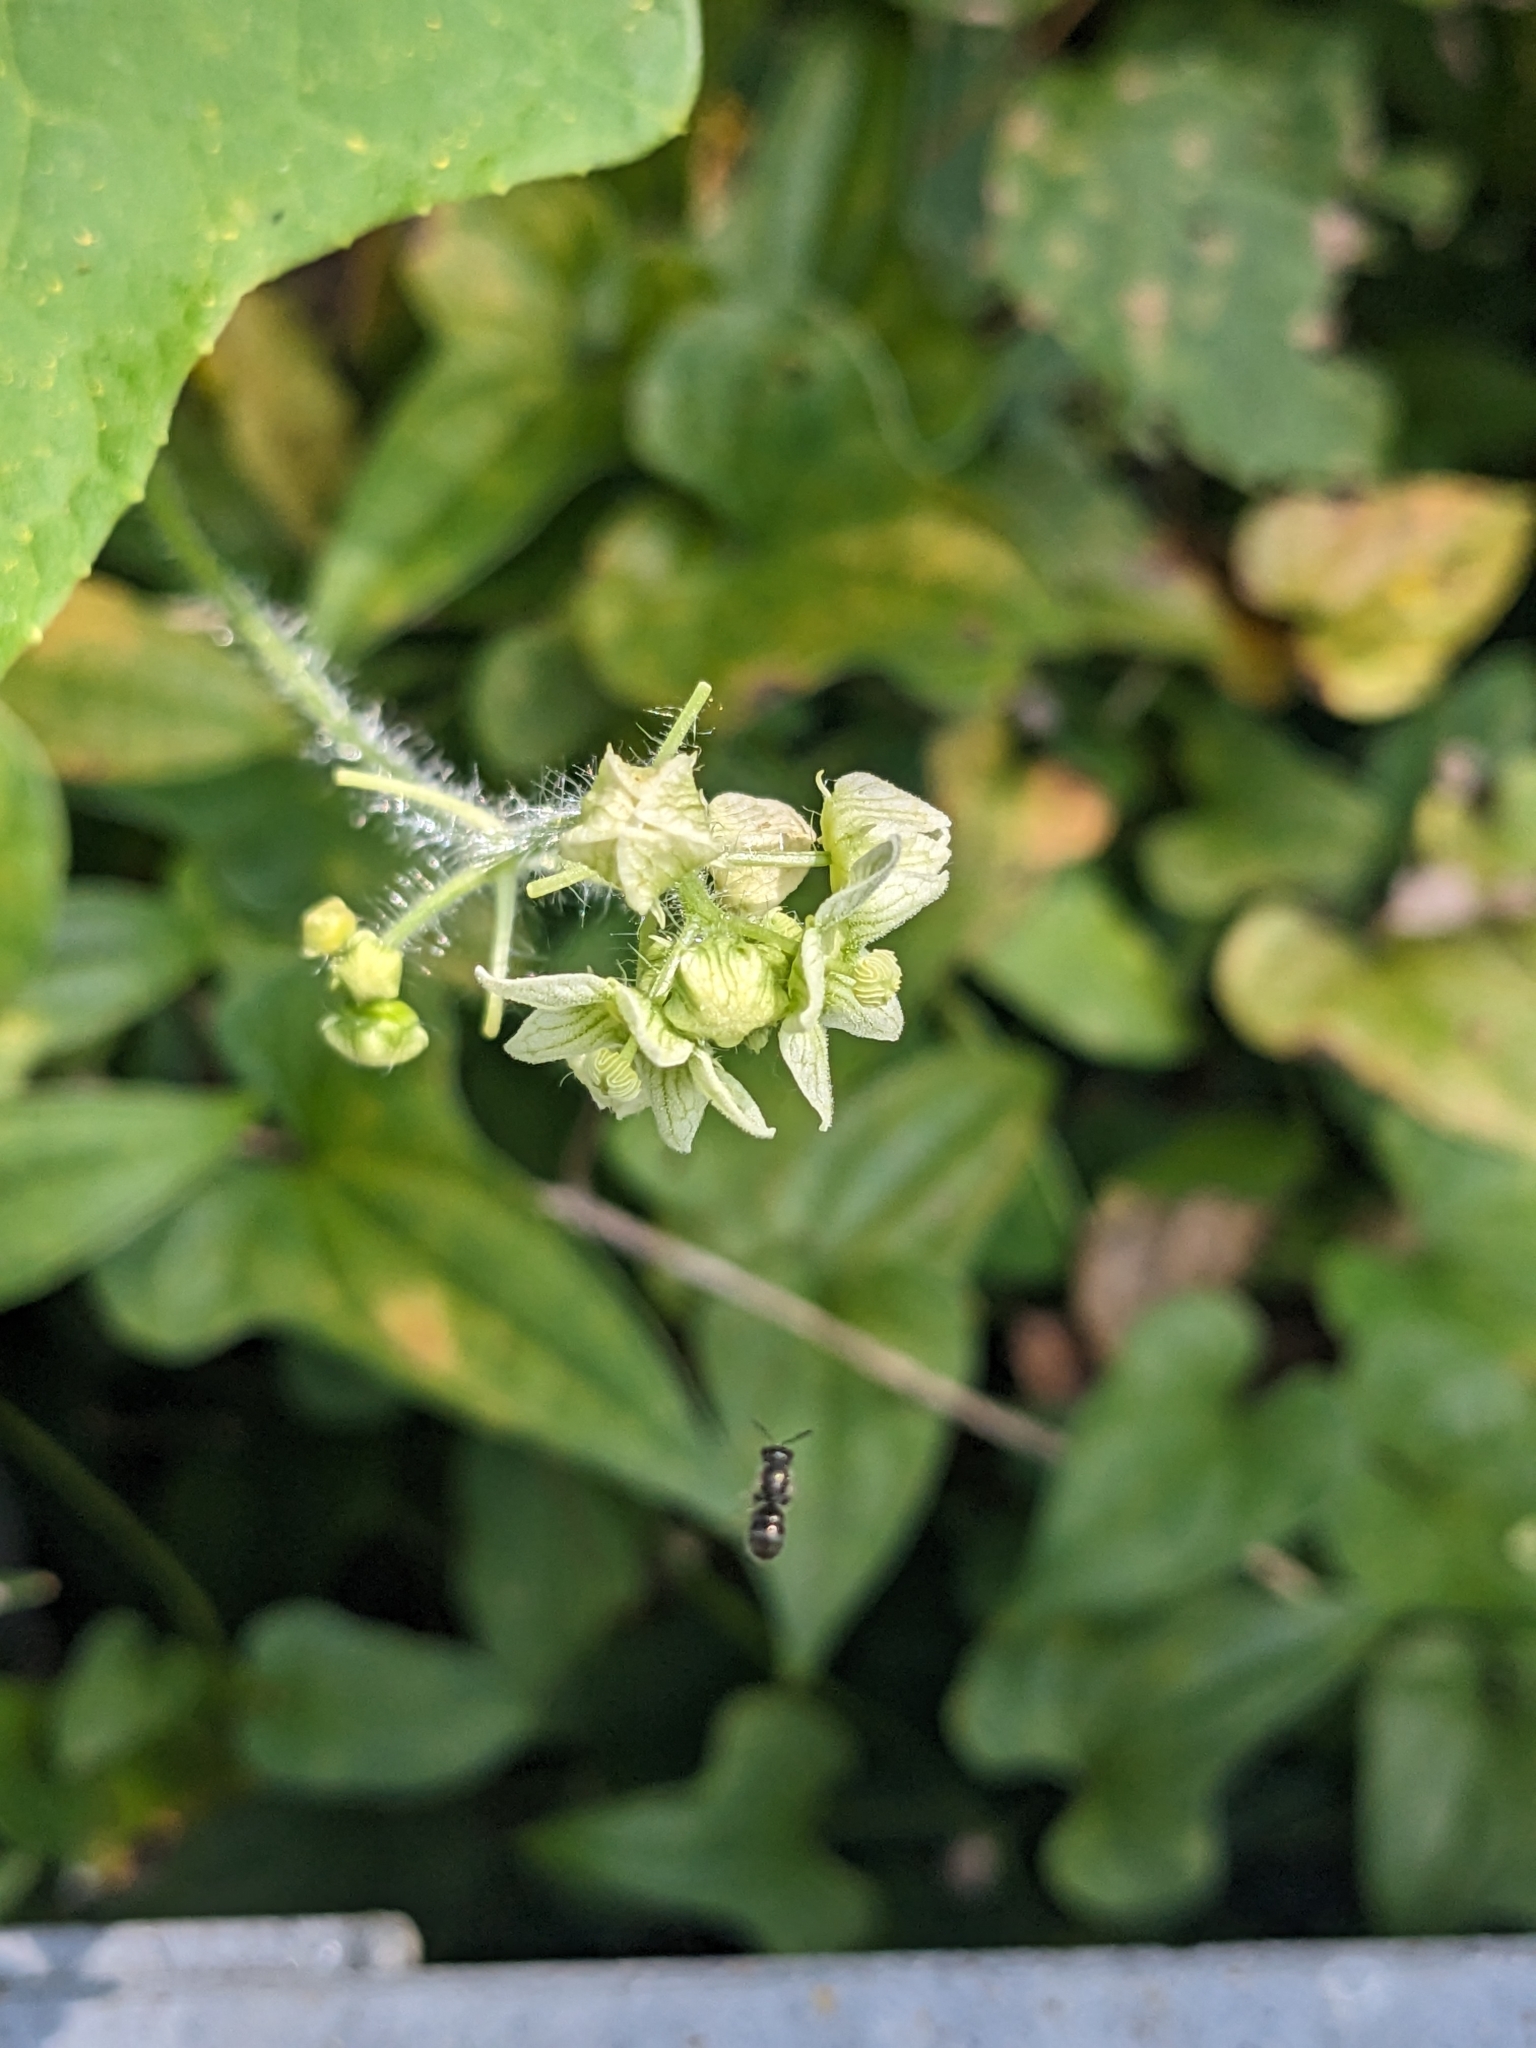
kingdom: Plantae
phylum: Tracheophyta
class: Magnoliopsida
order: Cucurbitales
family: Cucurbitaceae
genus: Sicyos
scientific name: Sicyos angulatus
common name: Angled burr cucumber
